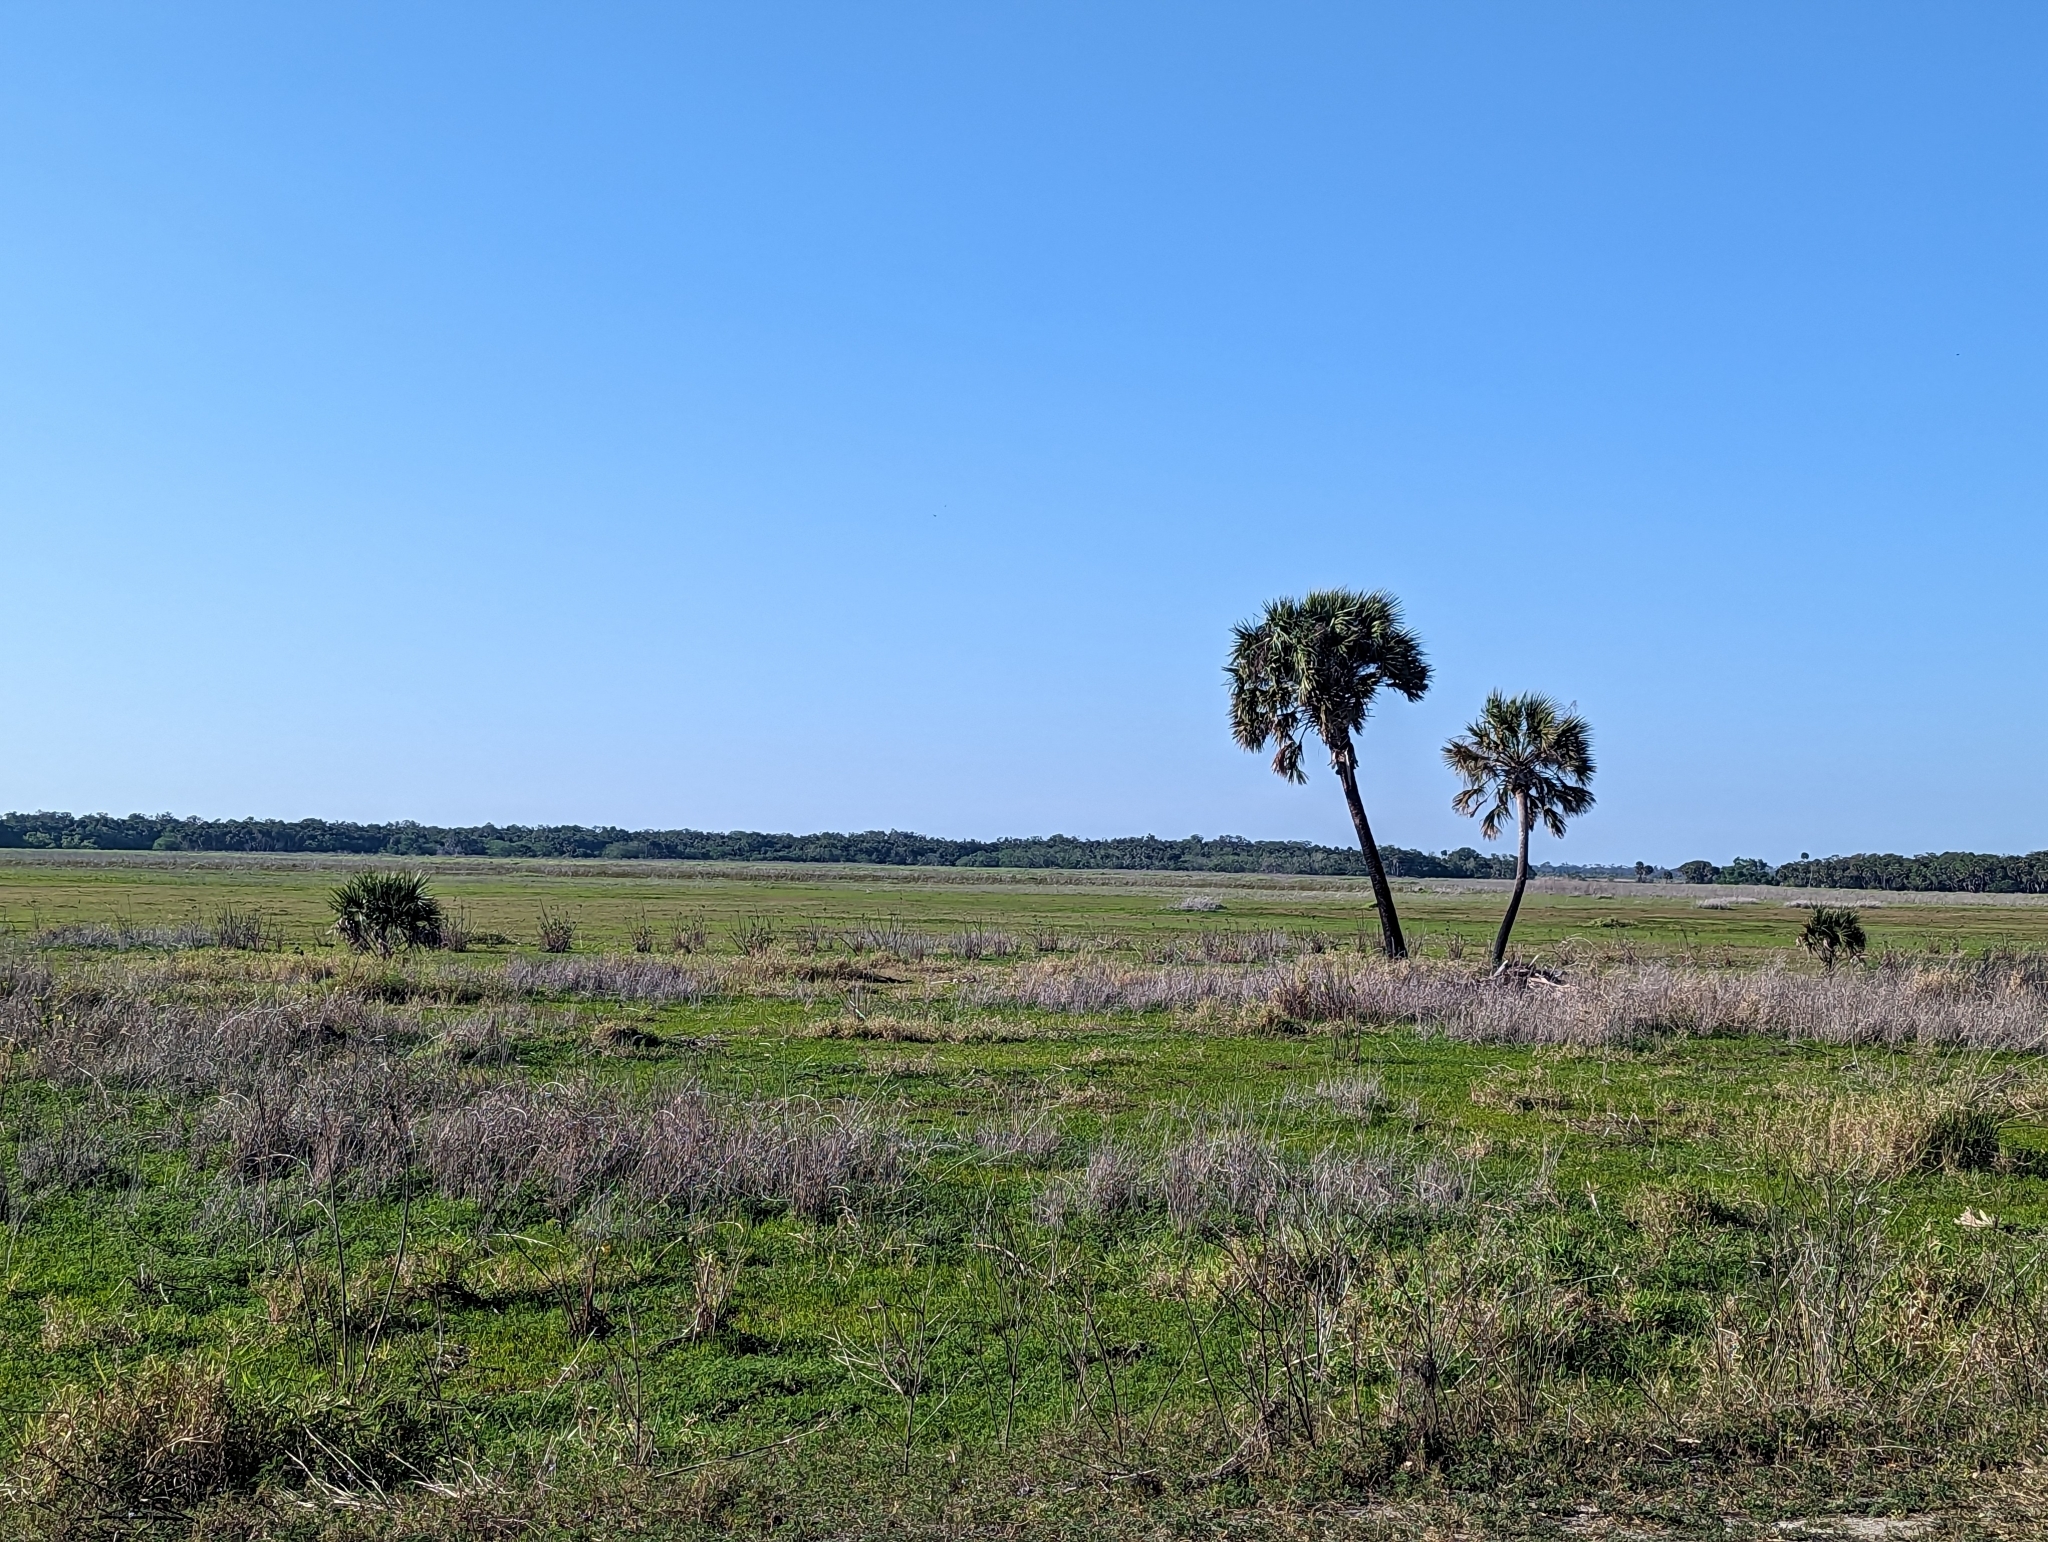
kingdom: Plantae
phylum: Tracheophyta
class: Liliopsida
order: Arecales
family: Arecaceae
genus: Sabal
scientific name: Sabal palmetto
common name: Blue palmetto
